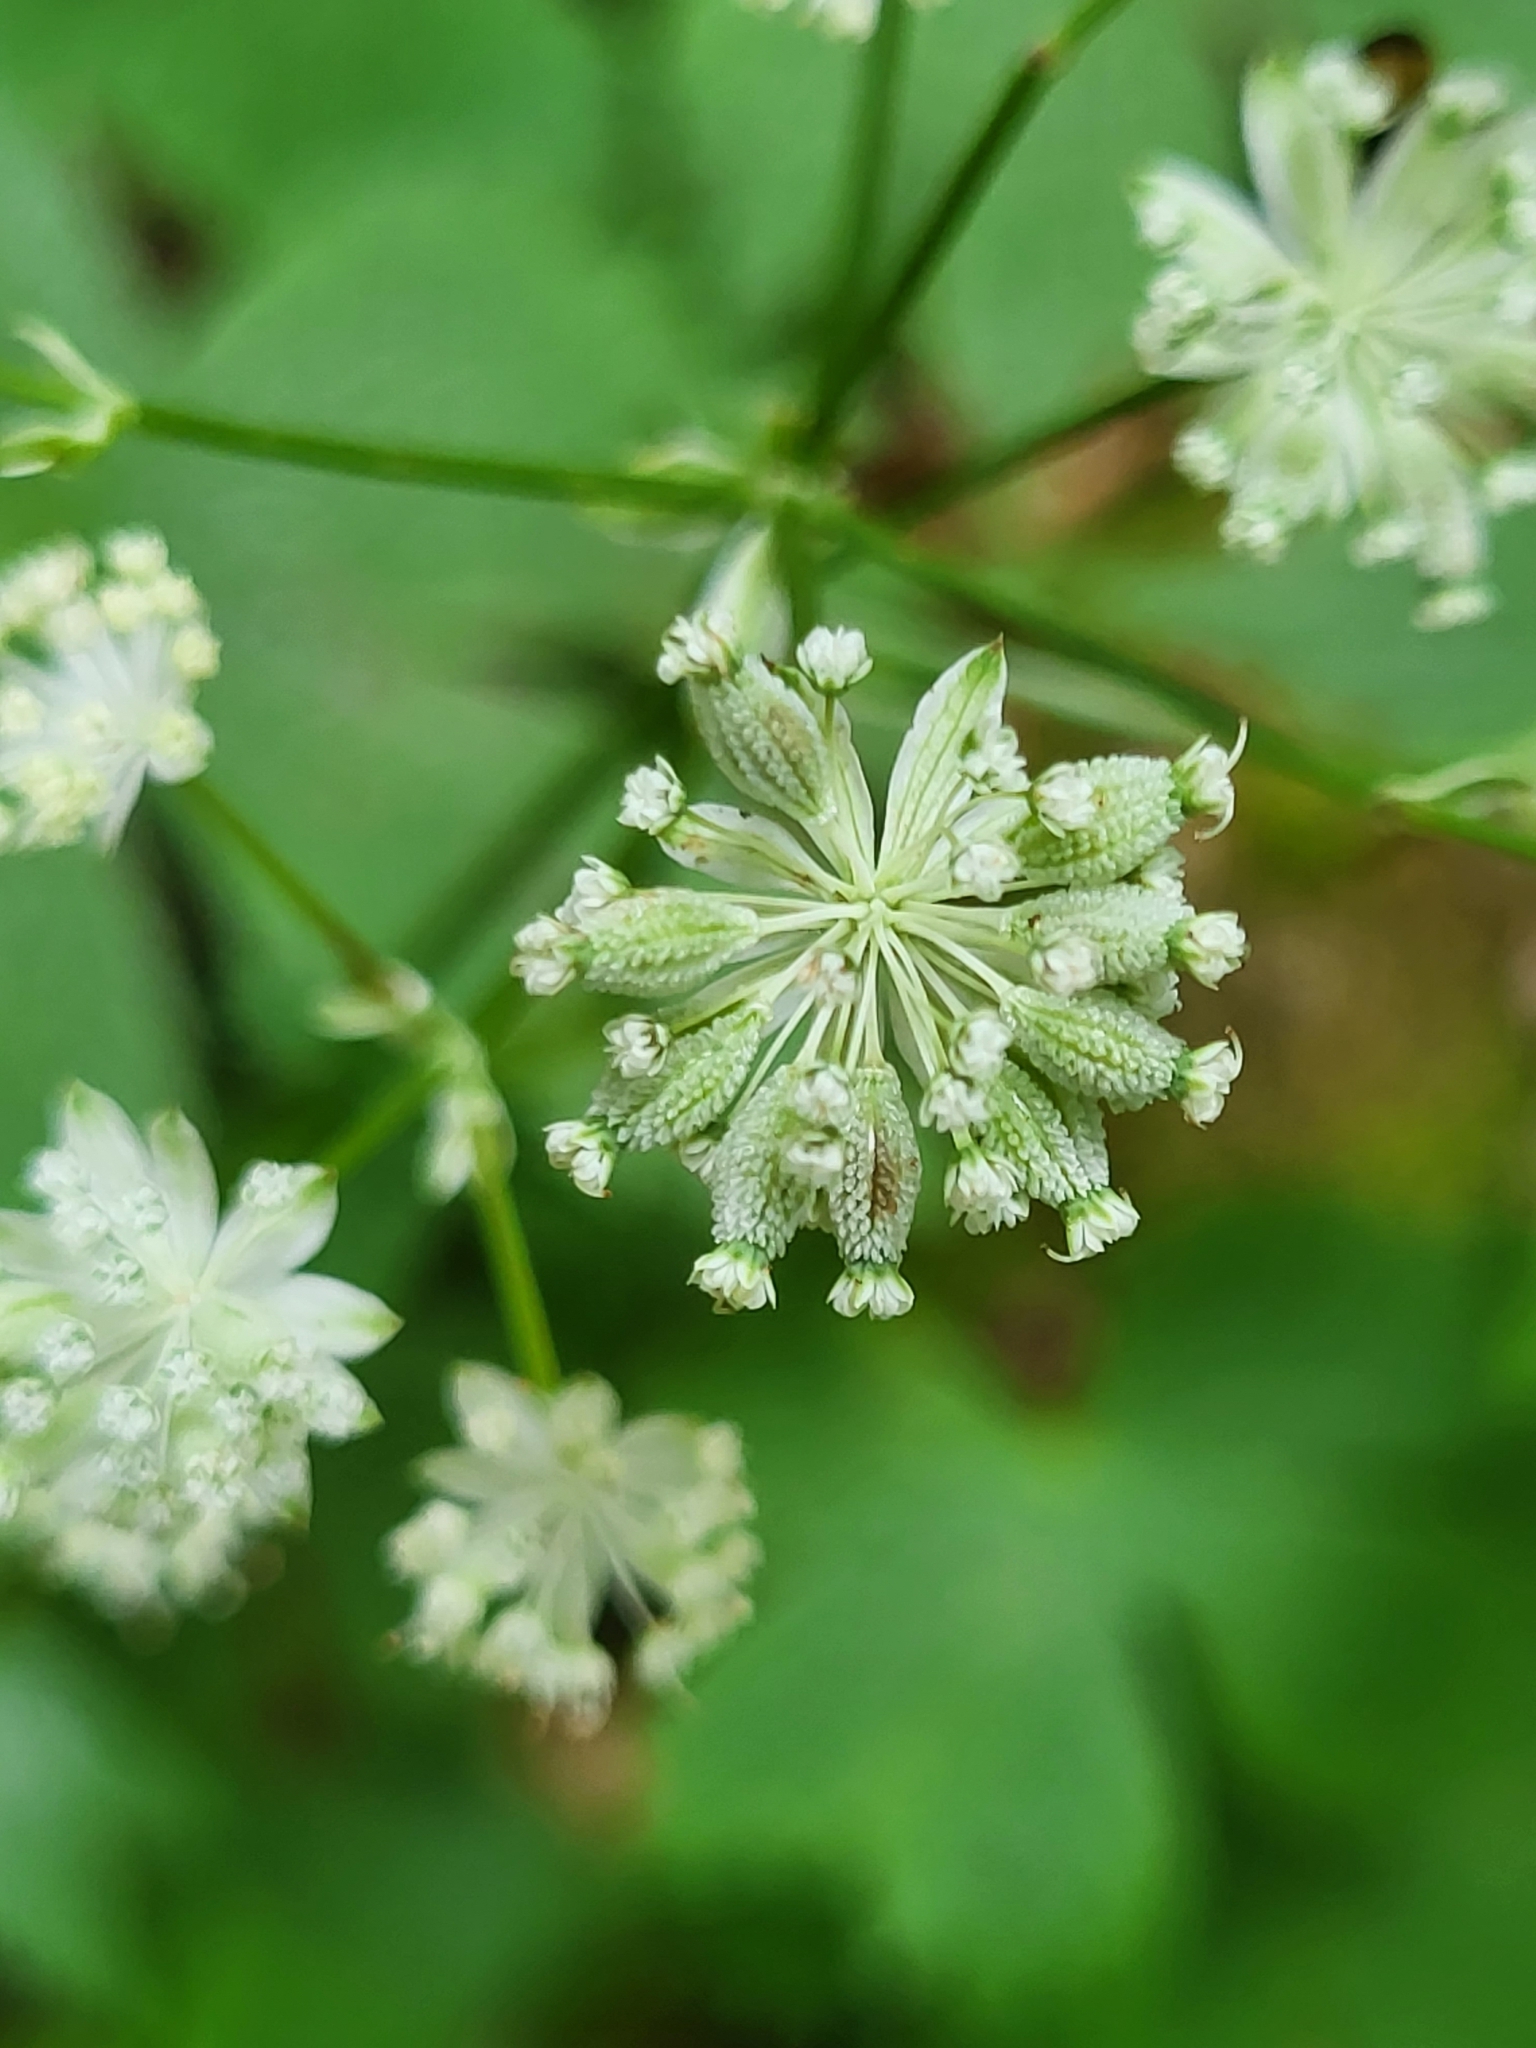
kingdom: Plantae
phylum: Tracheophyta
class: Magnoliopsida
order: Apiales
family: Apiaceae
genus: Astrantia
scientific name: Astrantia carniolica
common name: Carnic masterwort
